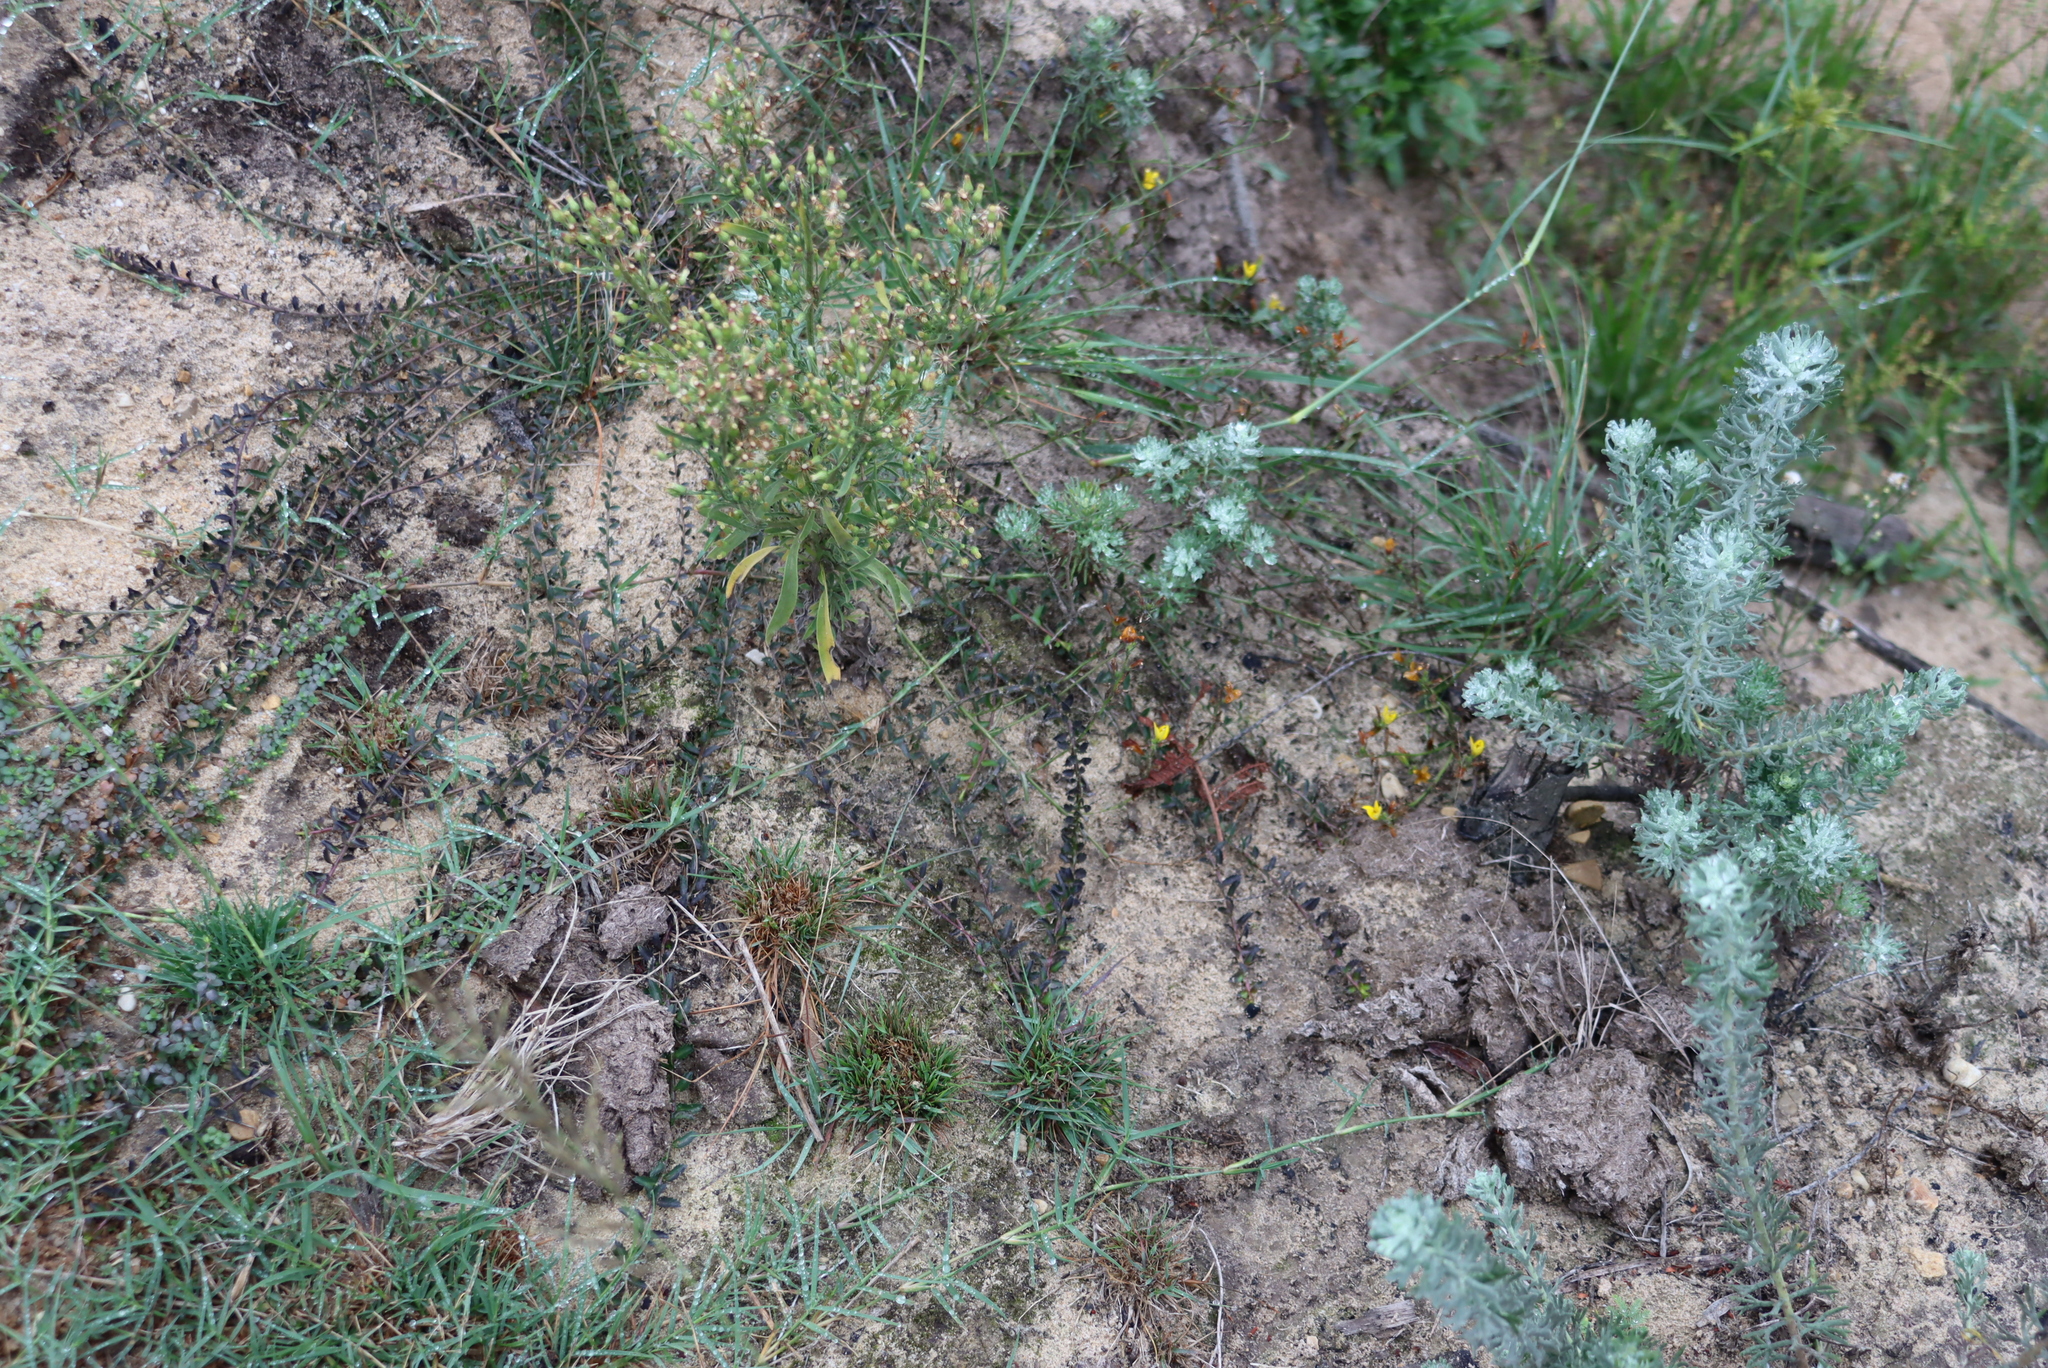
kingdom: Plantae
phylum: Tracheophyta
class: Magnoliopsida
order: Asterales
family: Campanulaceae
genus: Monopsis
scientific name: Monopsis lutea
